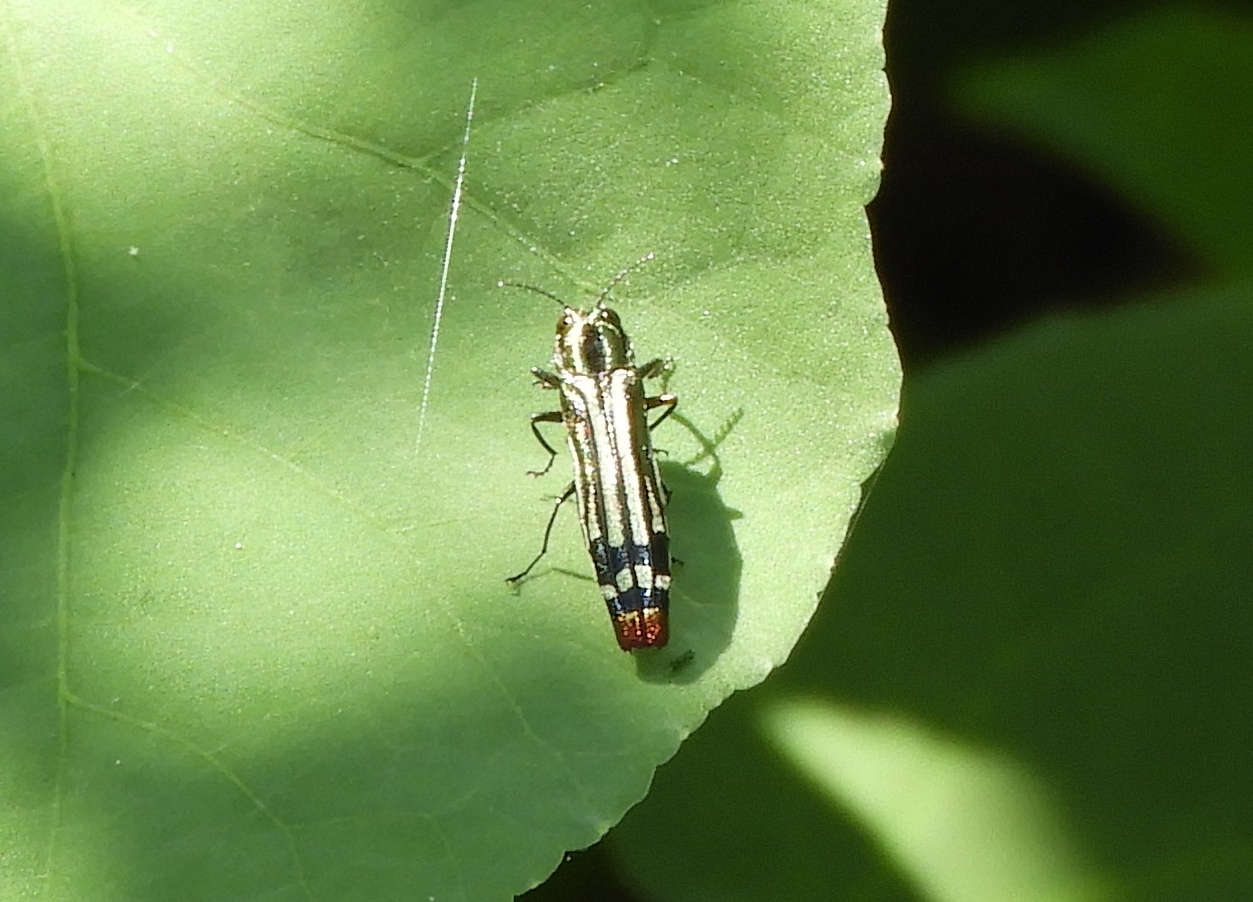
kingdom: Animalia
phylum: Arthropoda
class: Insecta
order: Coleoptera
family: Buprestidae
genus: Agrilus
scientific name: Agrilus catherinae
